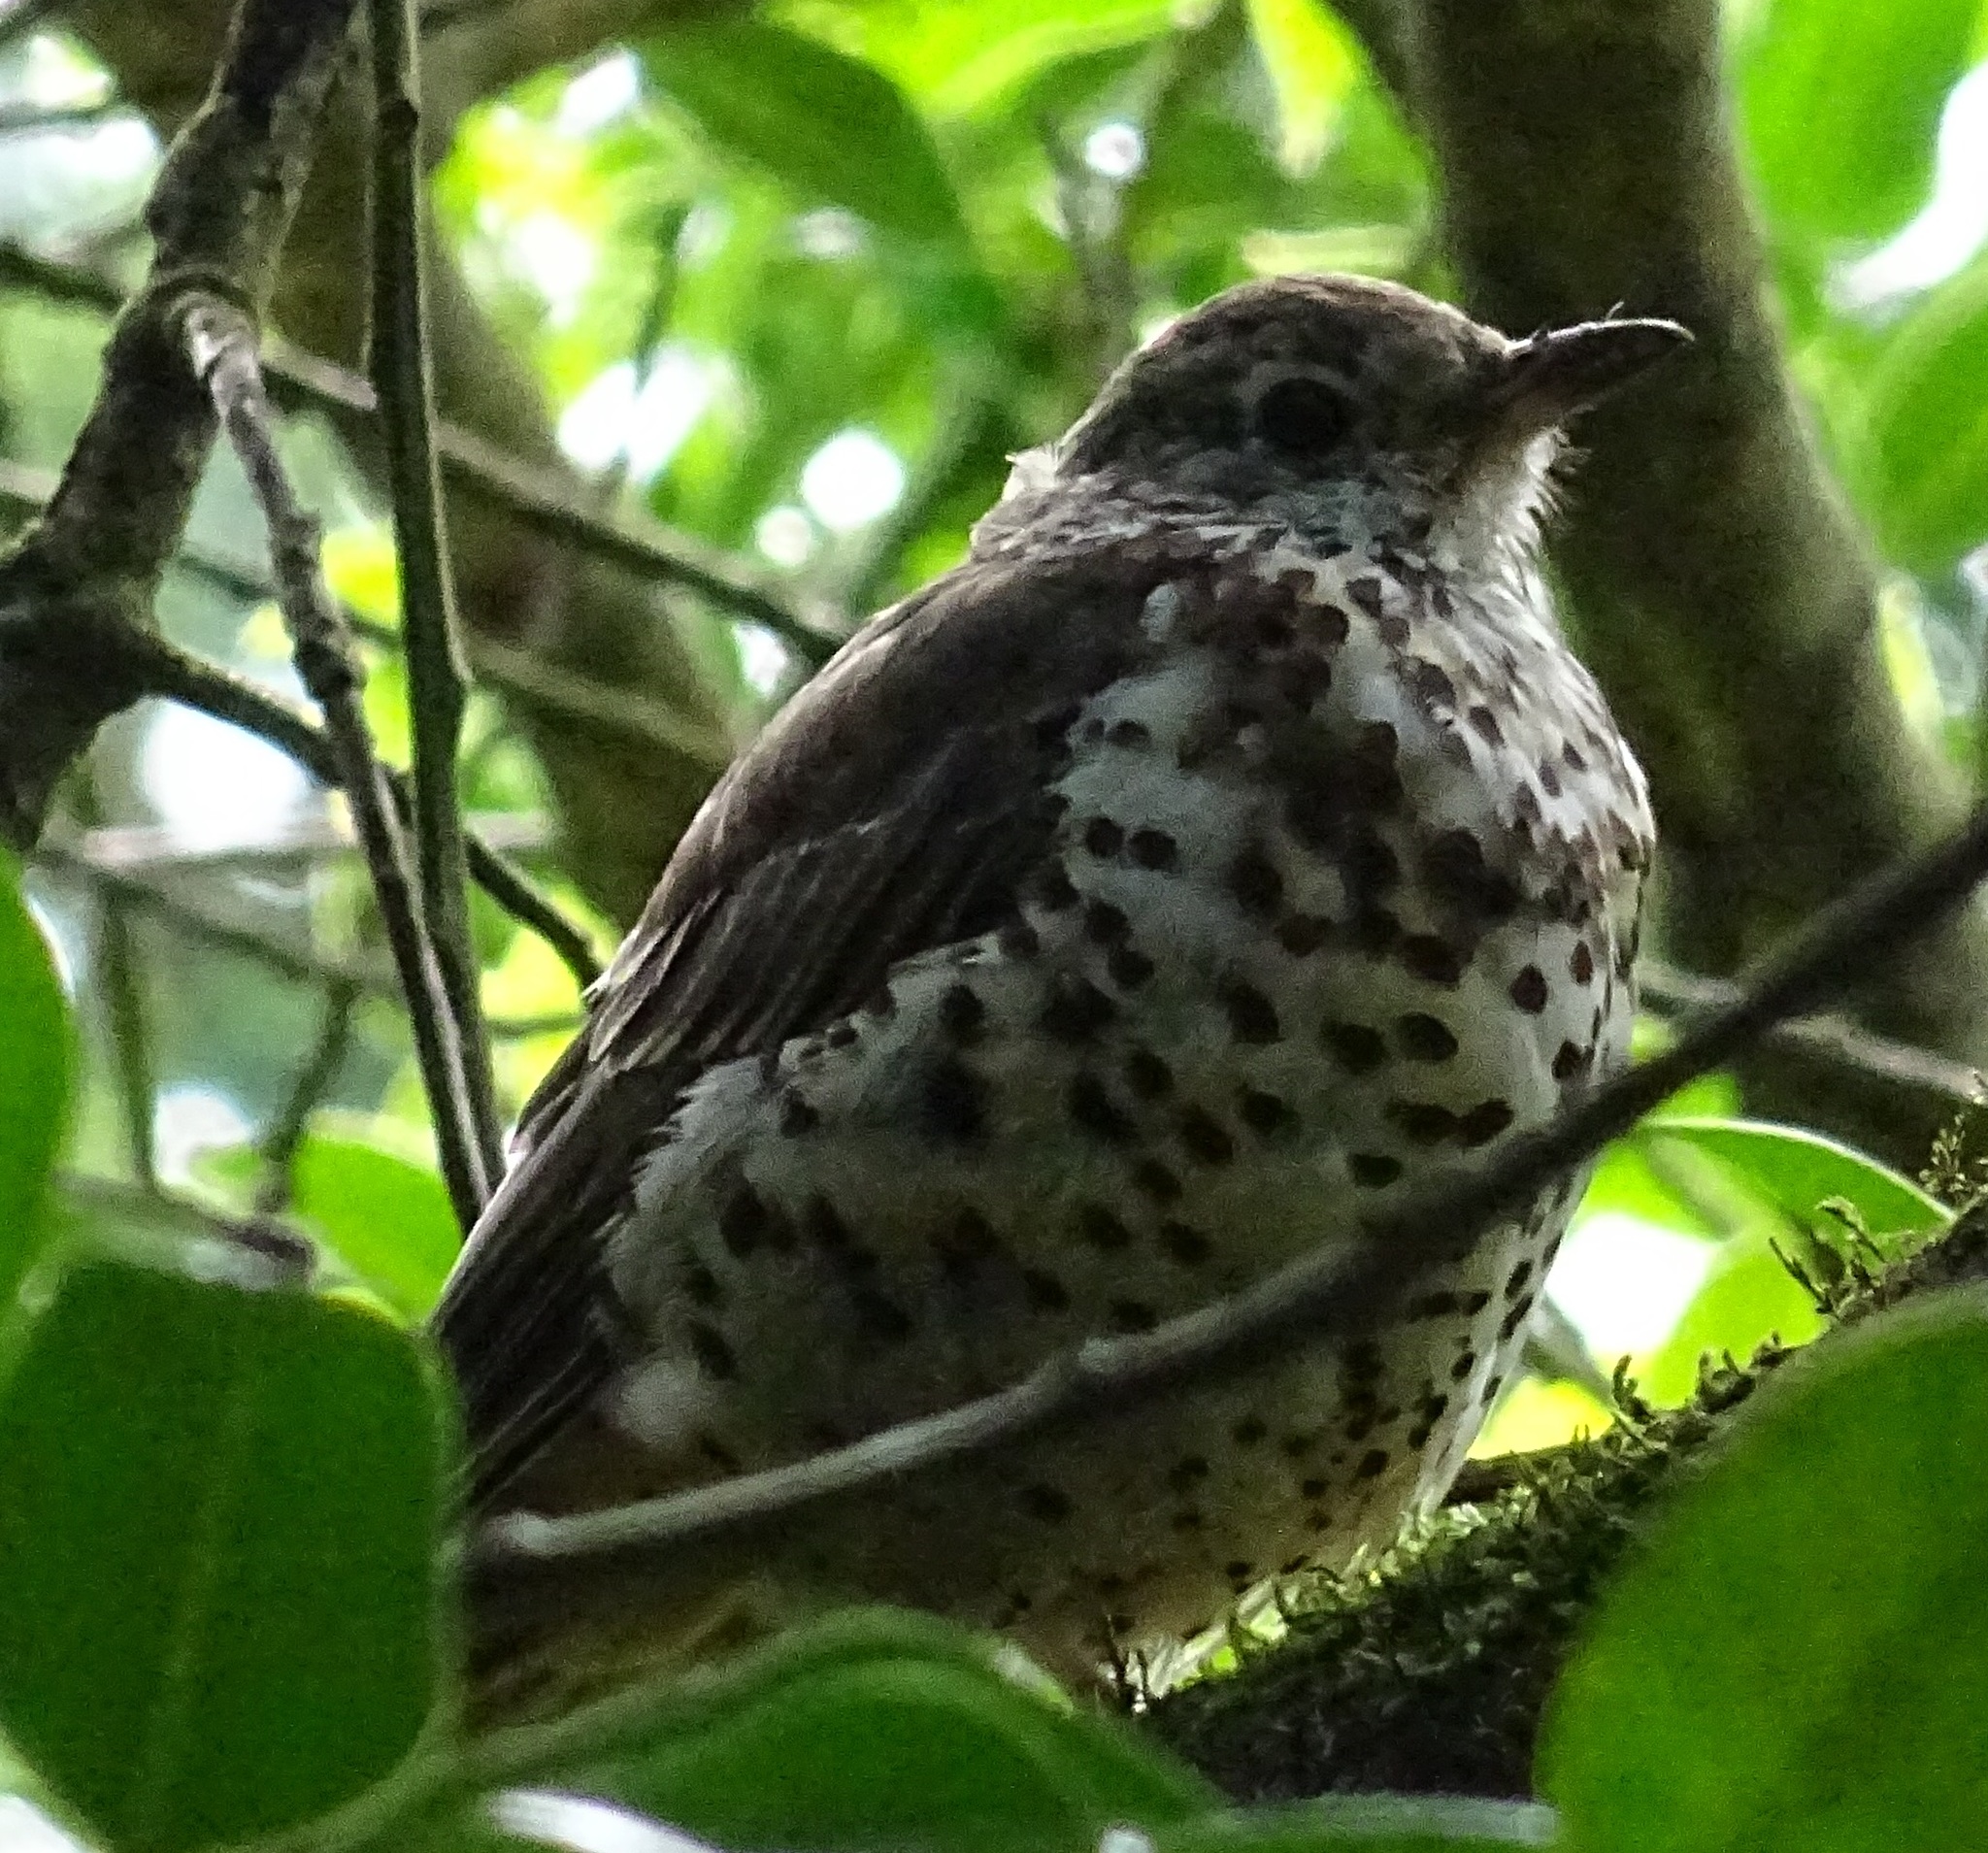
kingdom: Animalia
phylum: Chordata
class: Aves
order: Passeriformes
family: Turdidae
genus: Turdus
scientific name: Turdus viscivorus
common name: Mistle thrush
